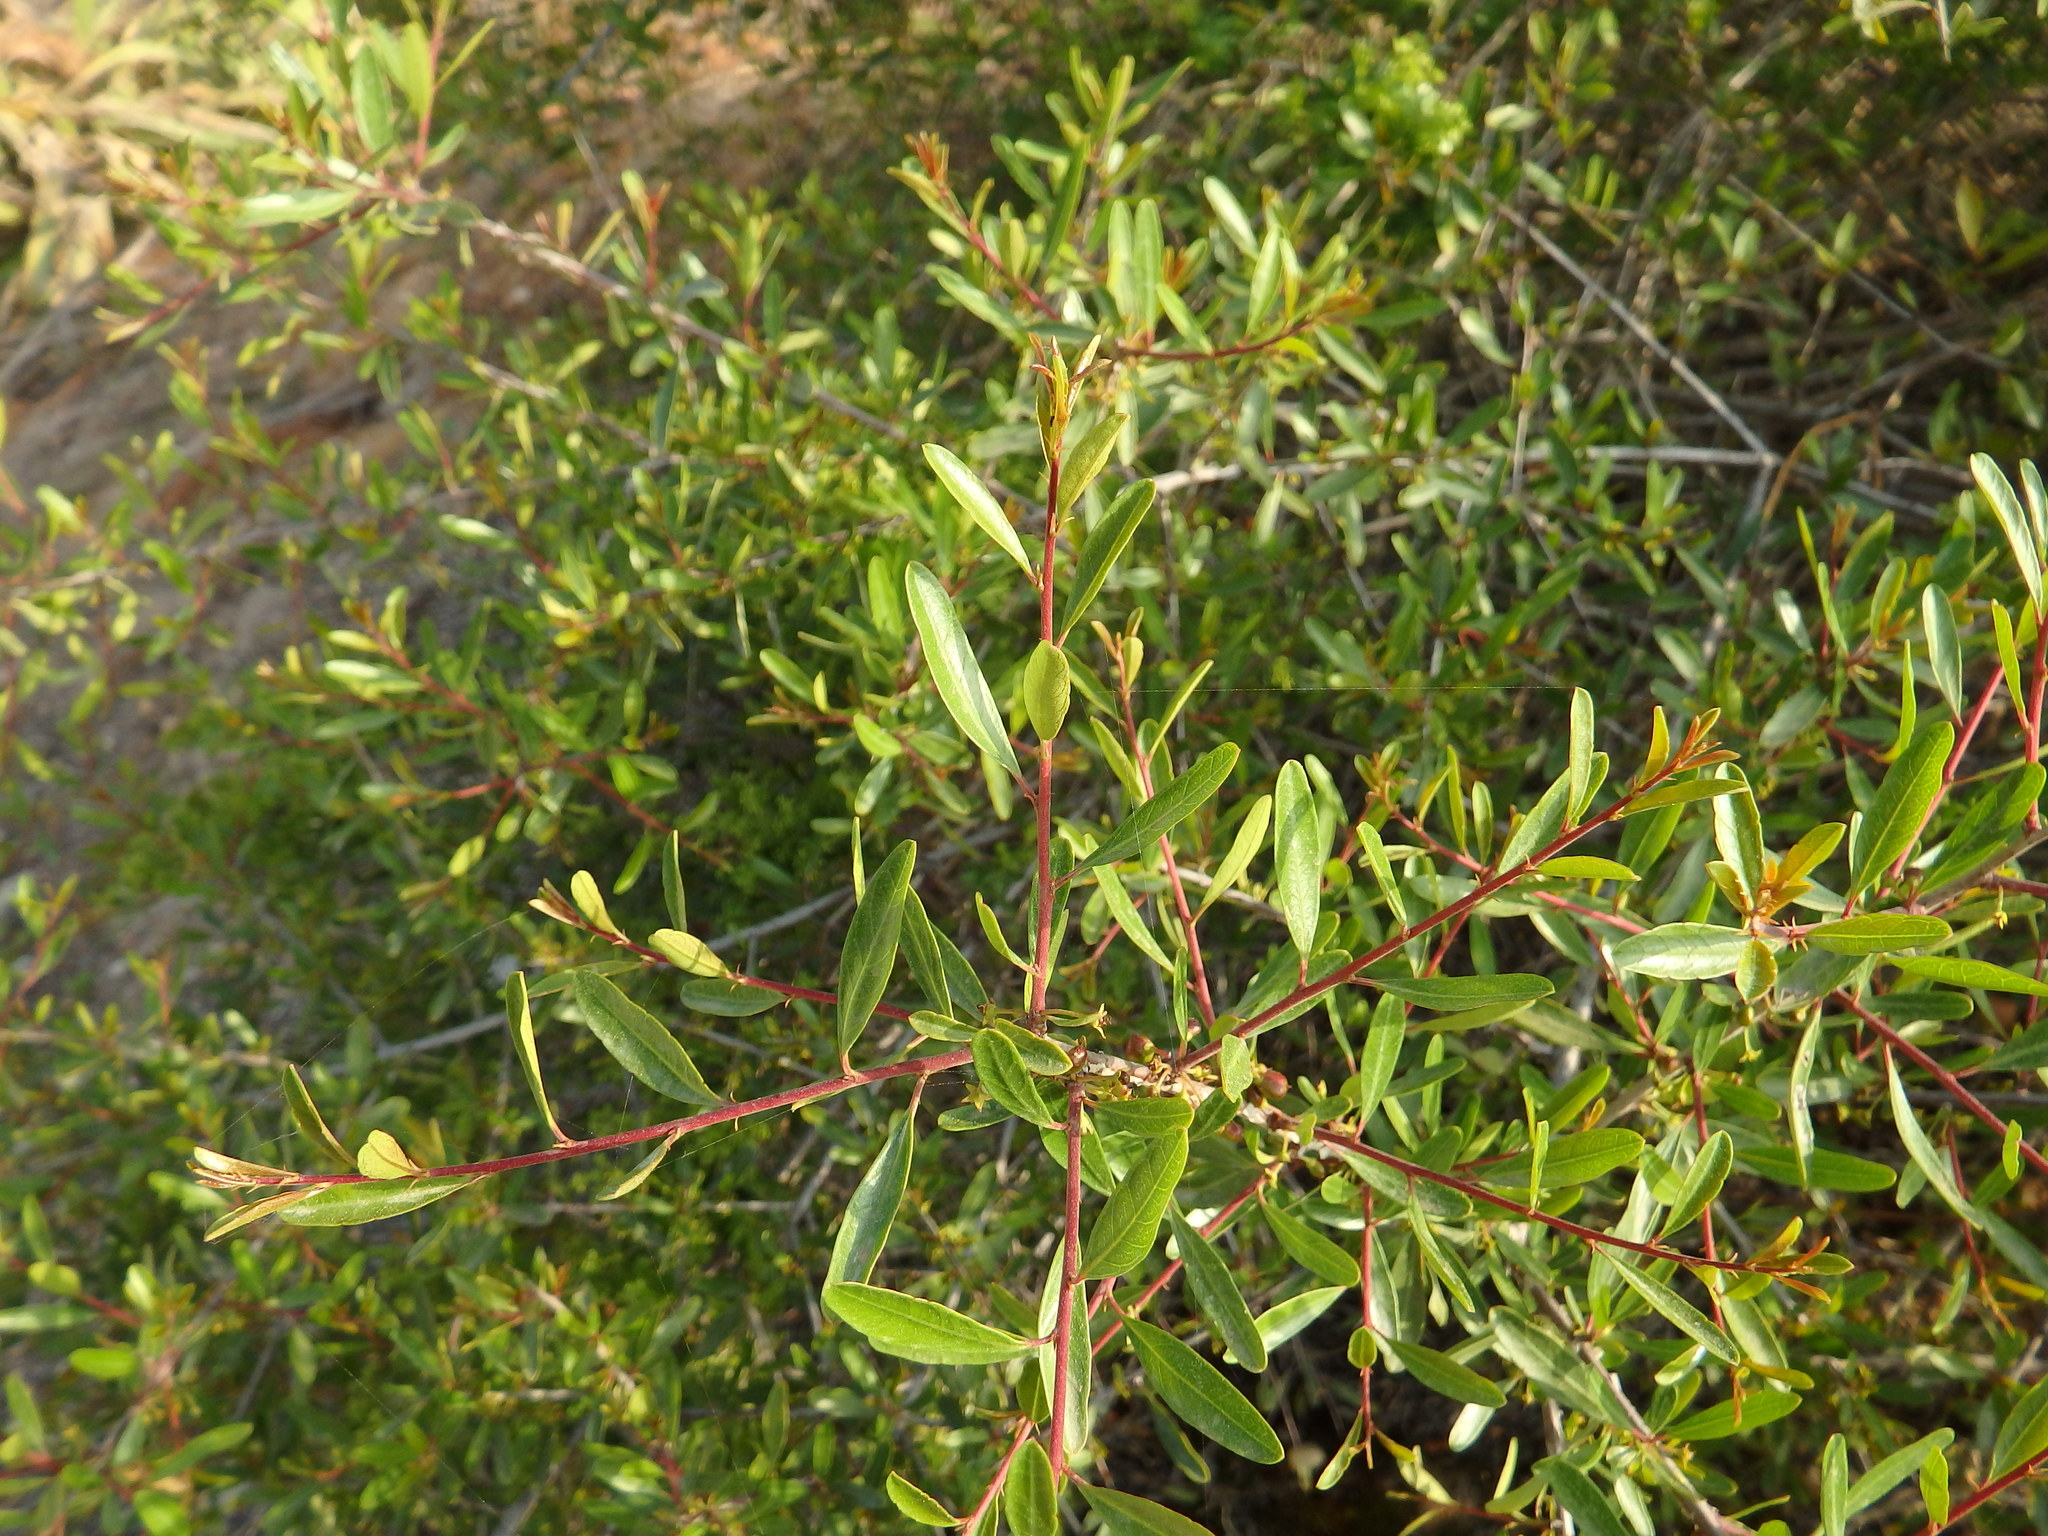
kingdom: Plantae
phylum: Tracheophyta
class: Magnoliopsida
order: Rosales
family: Rhamnaceae
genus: Rhamnus
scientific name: Rhamnus oleoides
